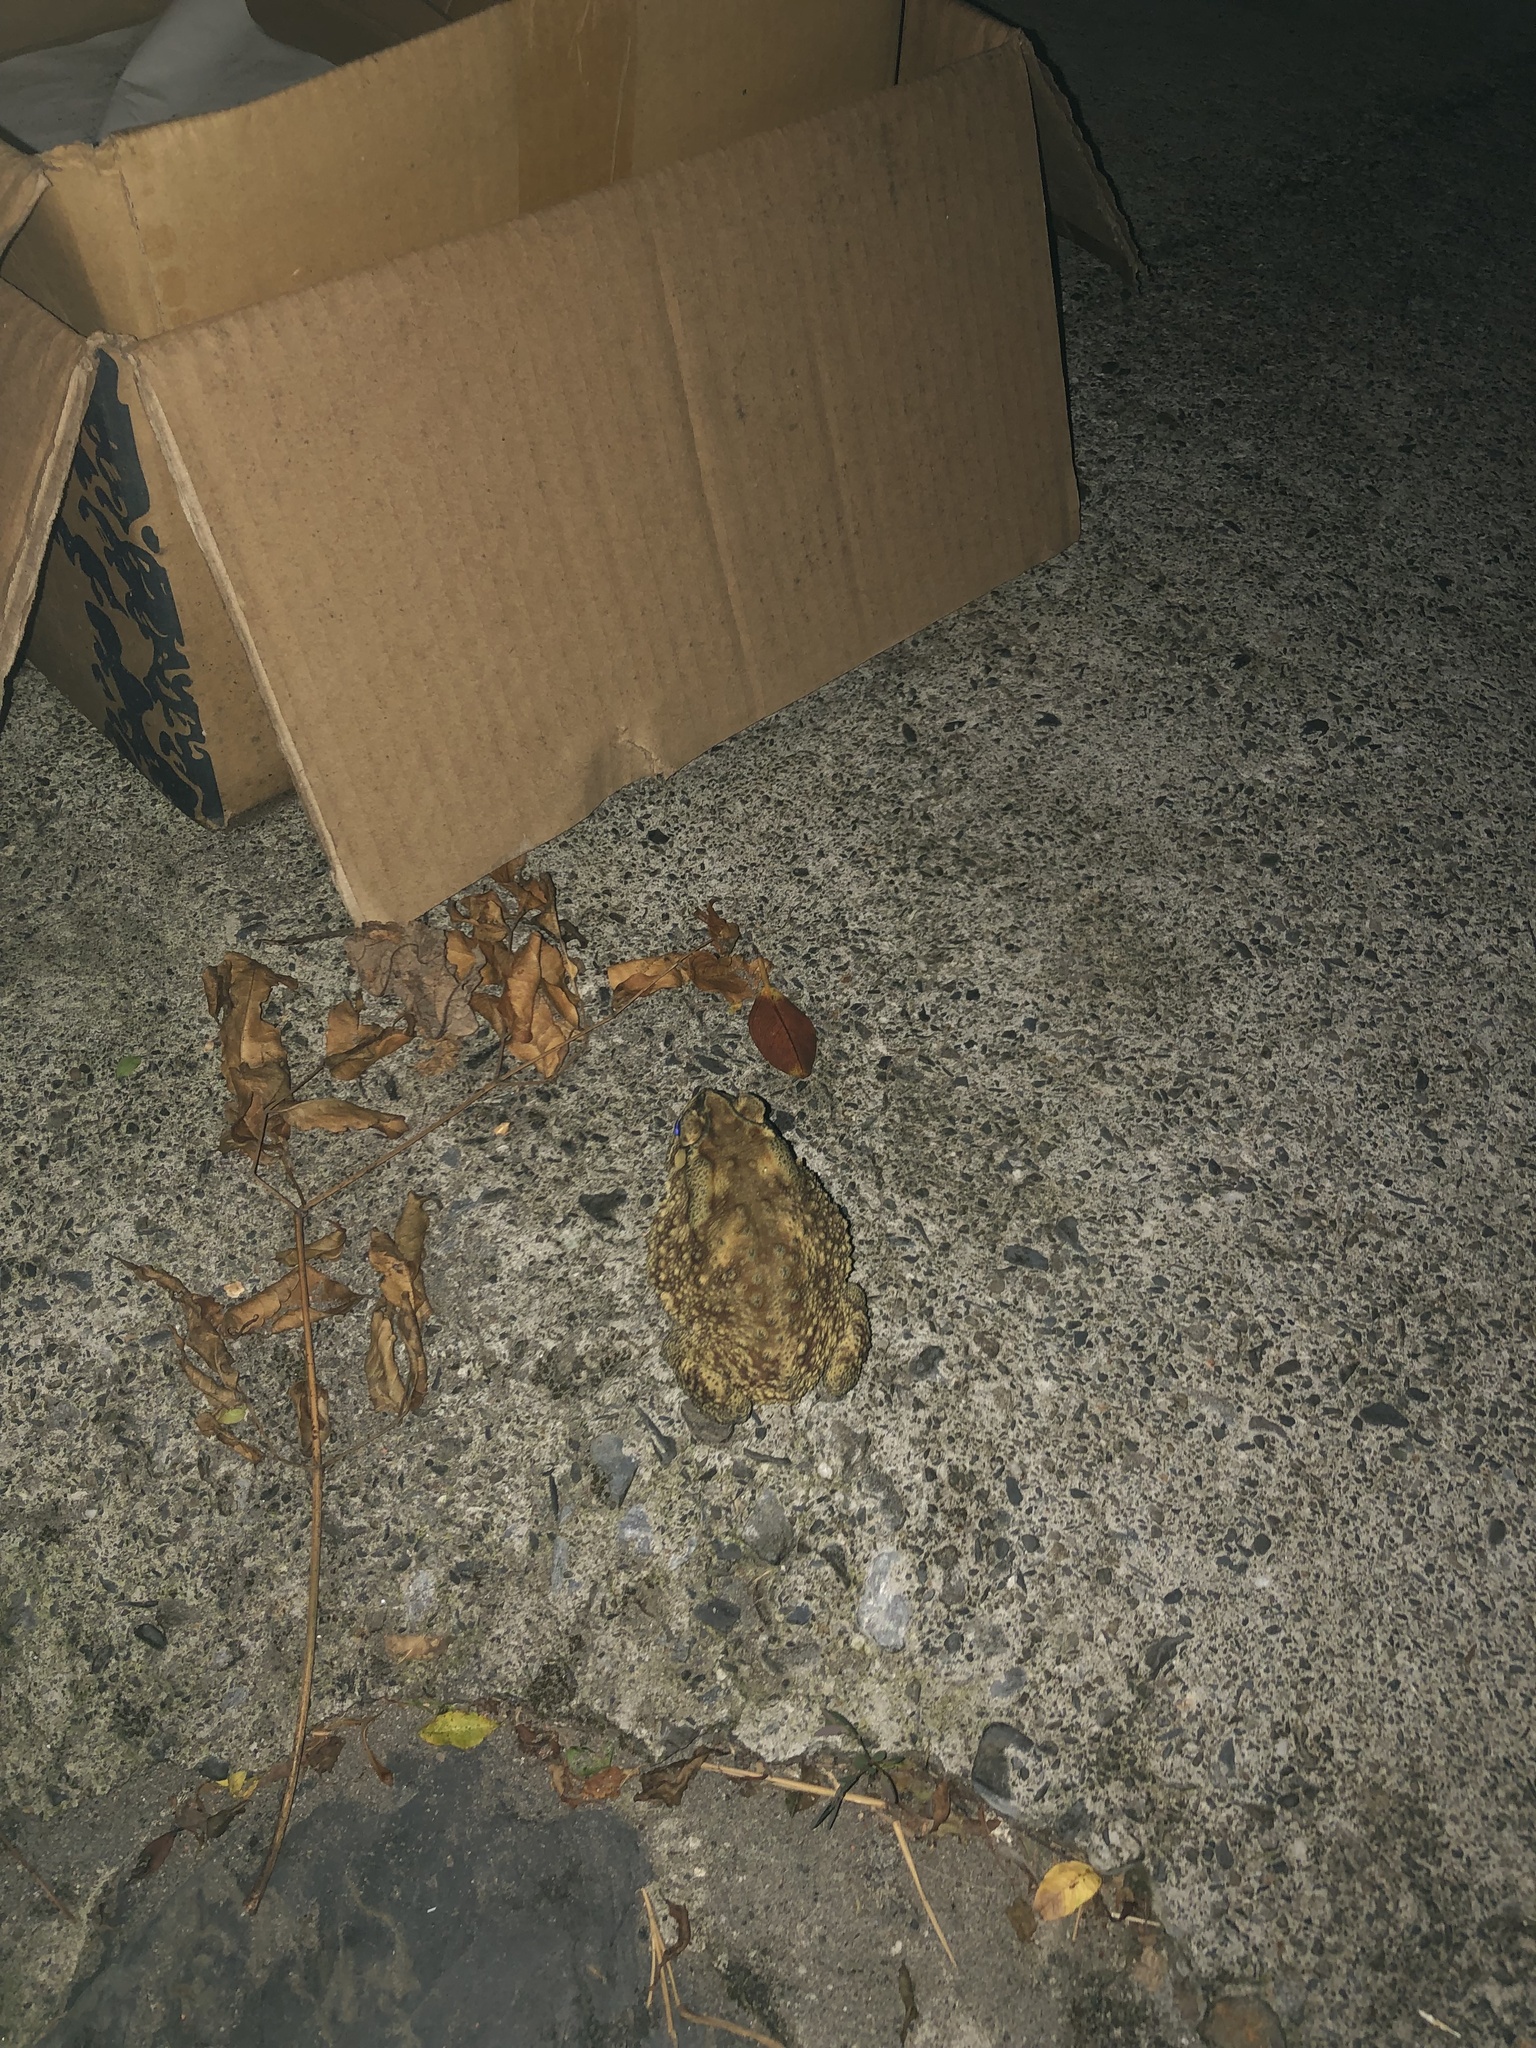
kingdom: Animalia
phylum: Chordata
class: Amphibia
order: Anura
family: Bufonidae
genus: Duttaphrynus
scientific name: Duttaphrynus melanostictus
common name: Common sunda toad
